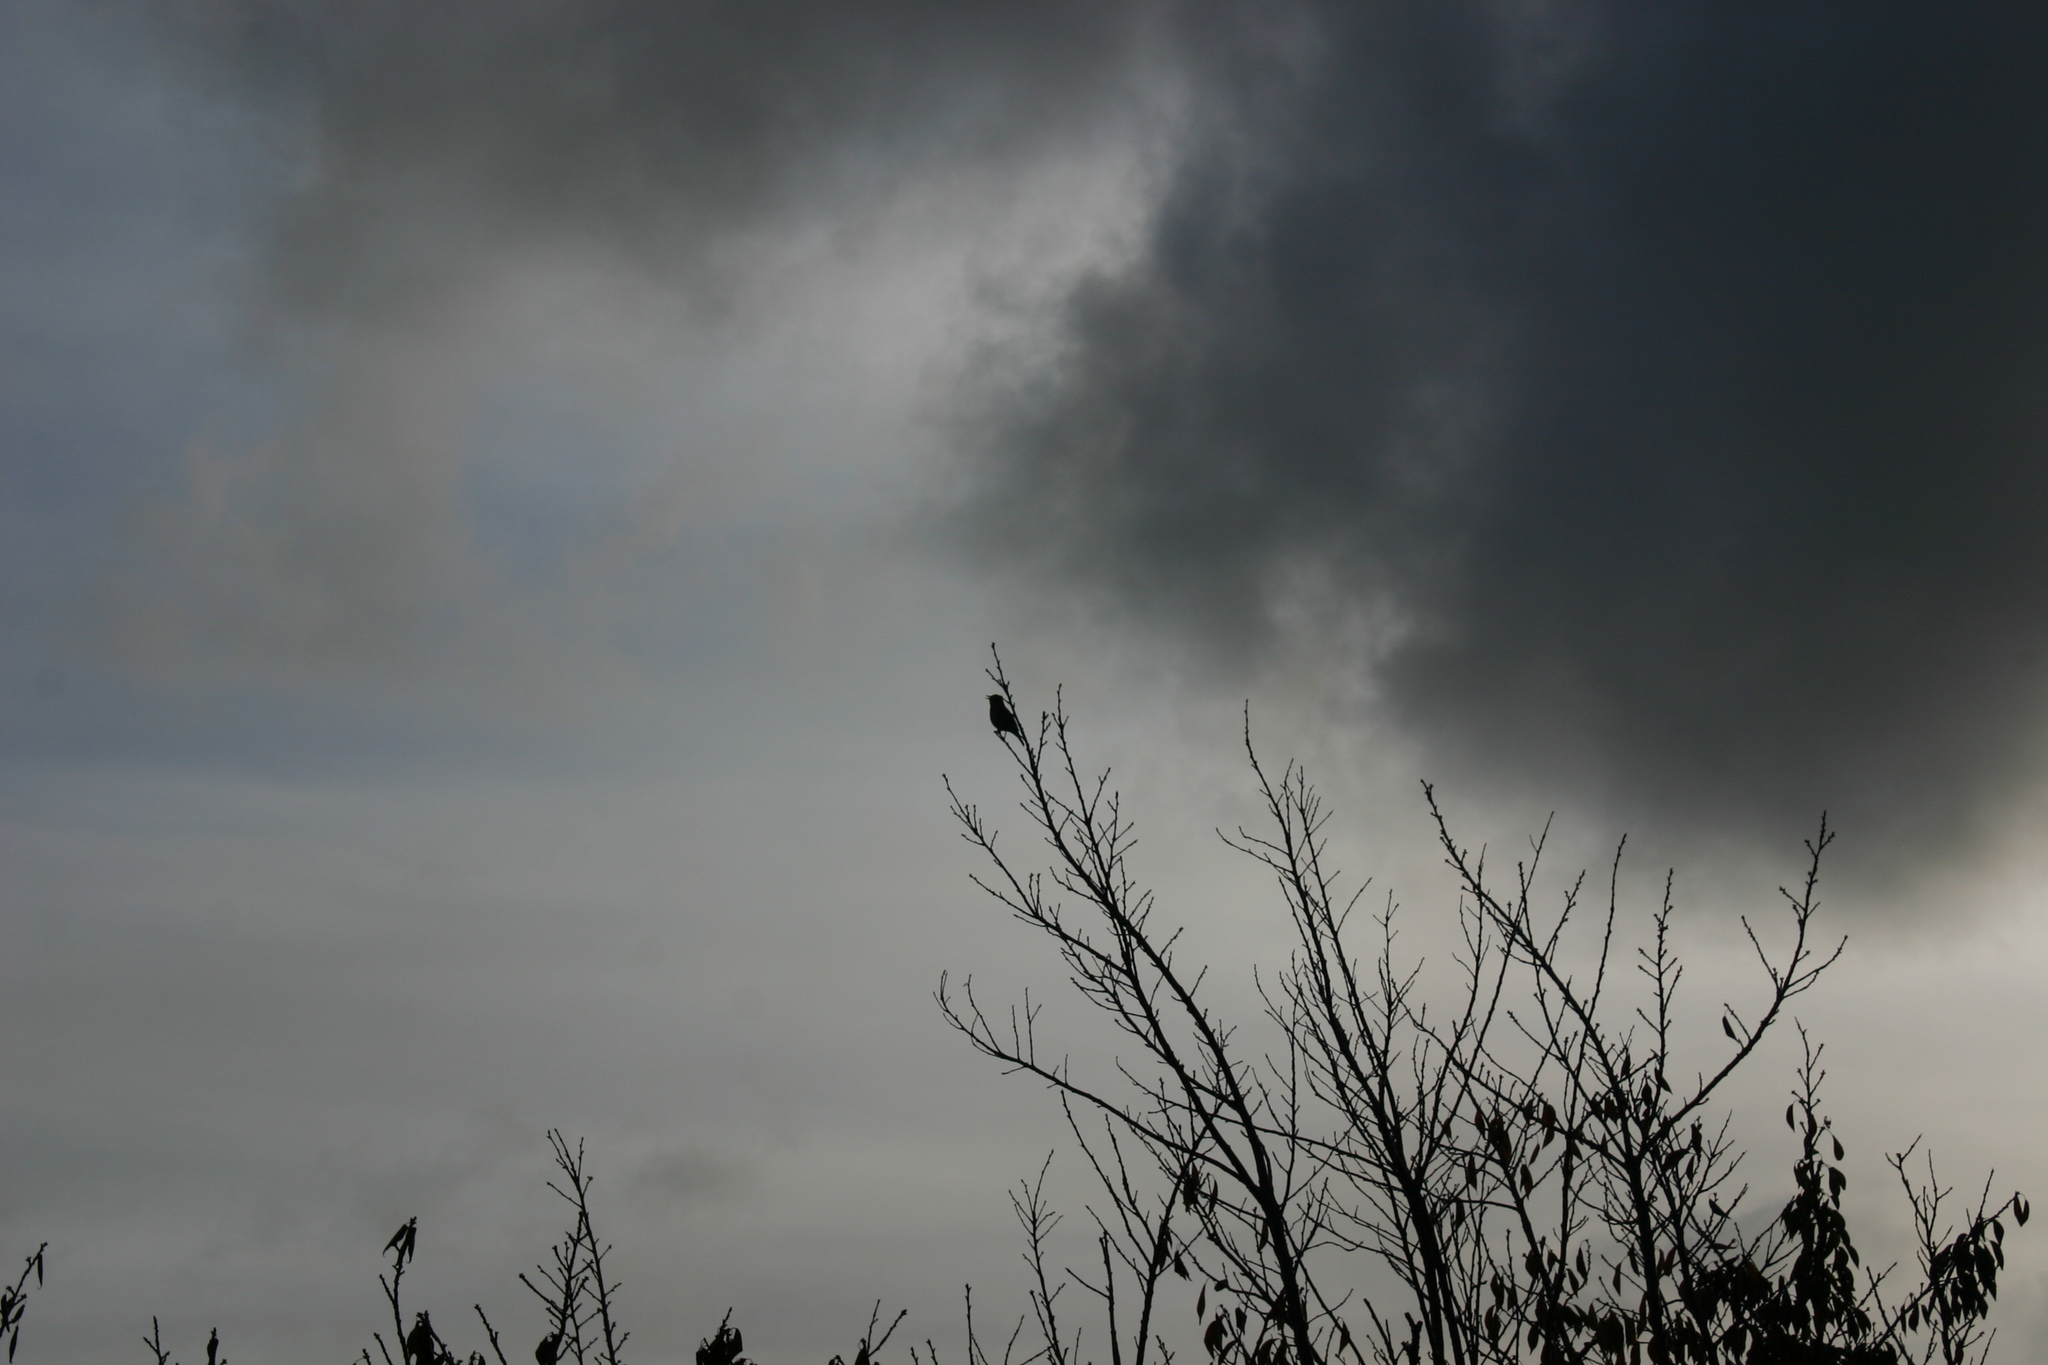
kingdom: Animalia
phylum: Chordata
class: Aves
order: Passeriformes
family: Turdidae
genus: Turdus
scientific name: Turdus philomelos
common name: Song thrush
